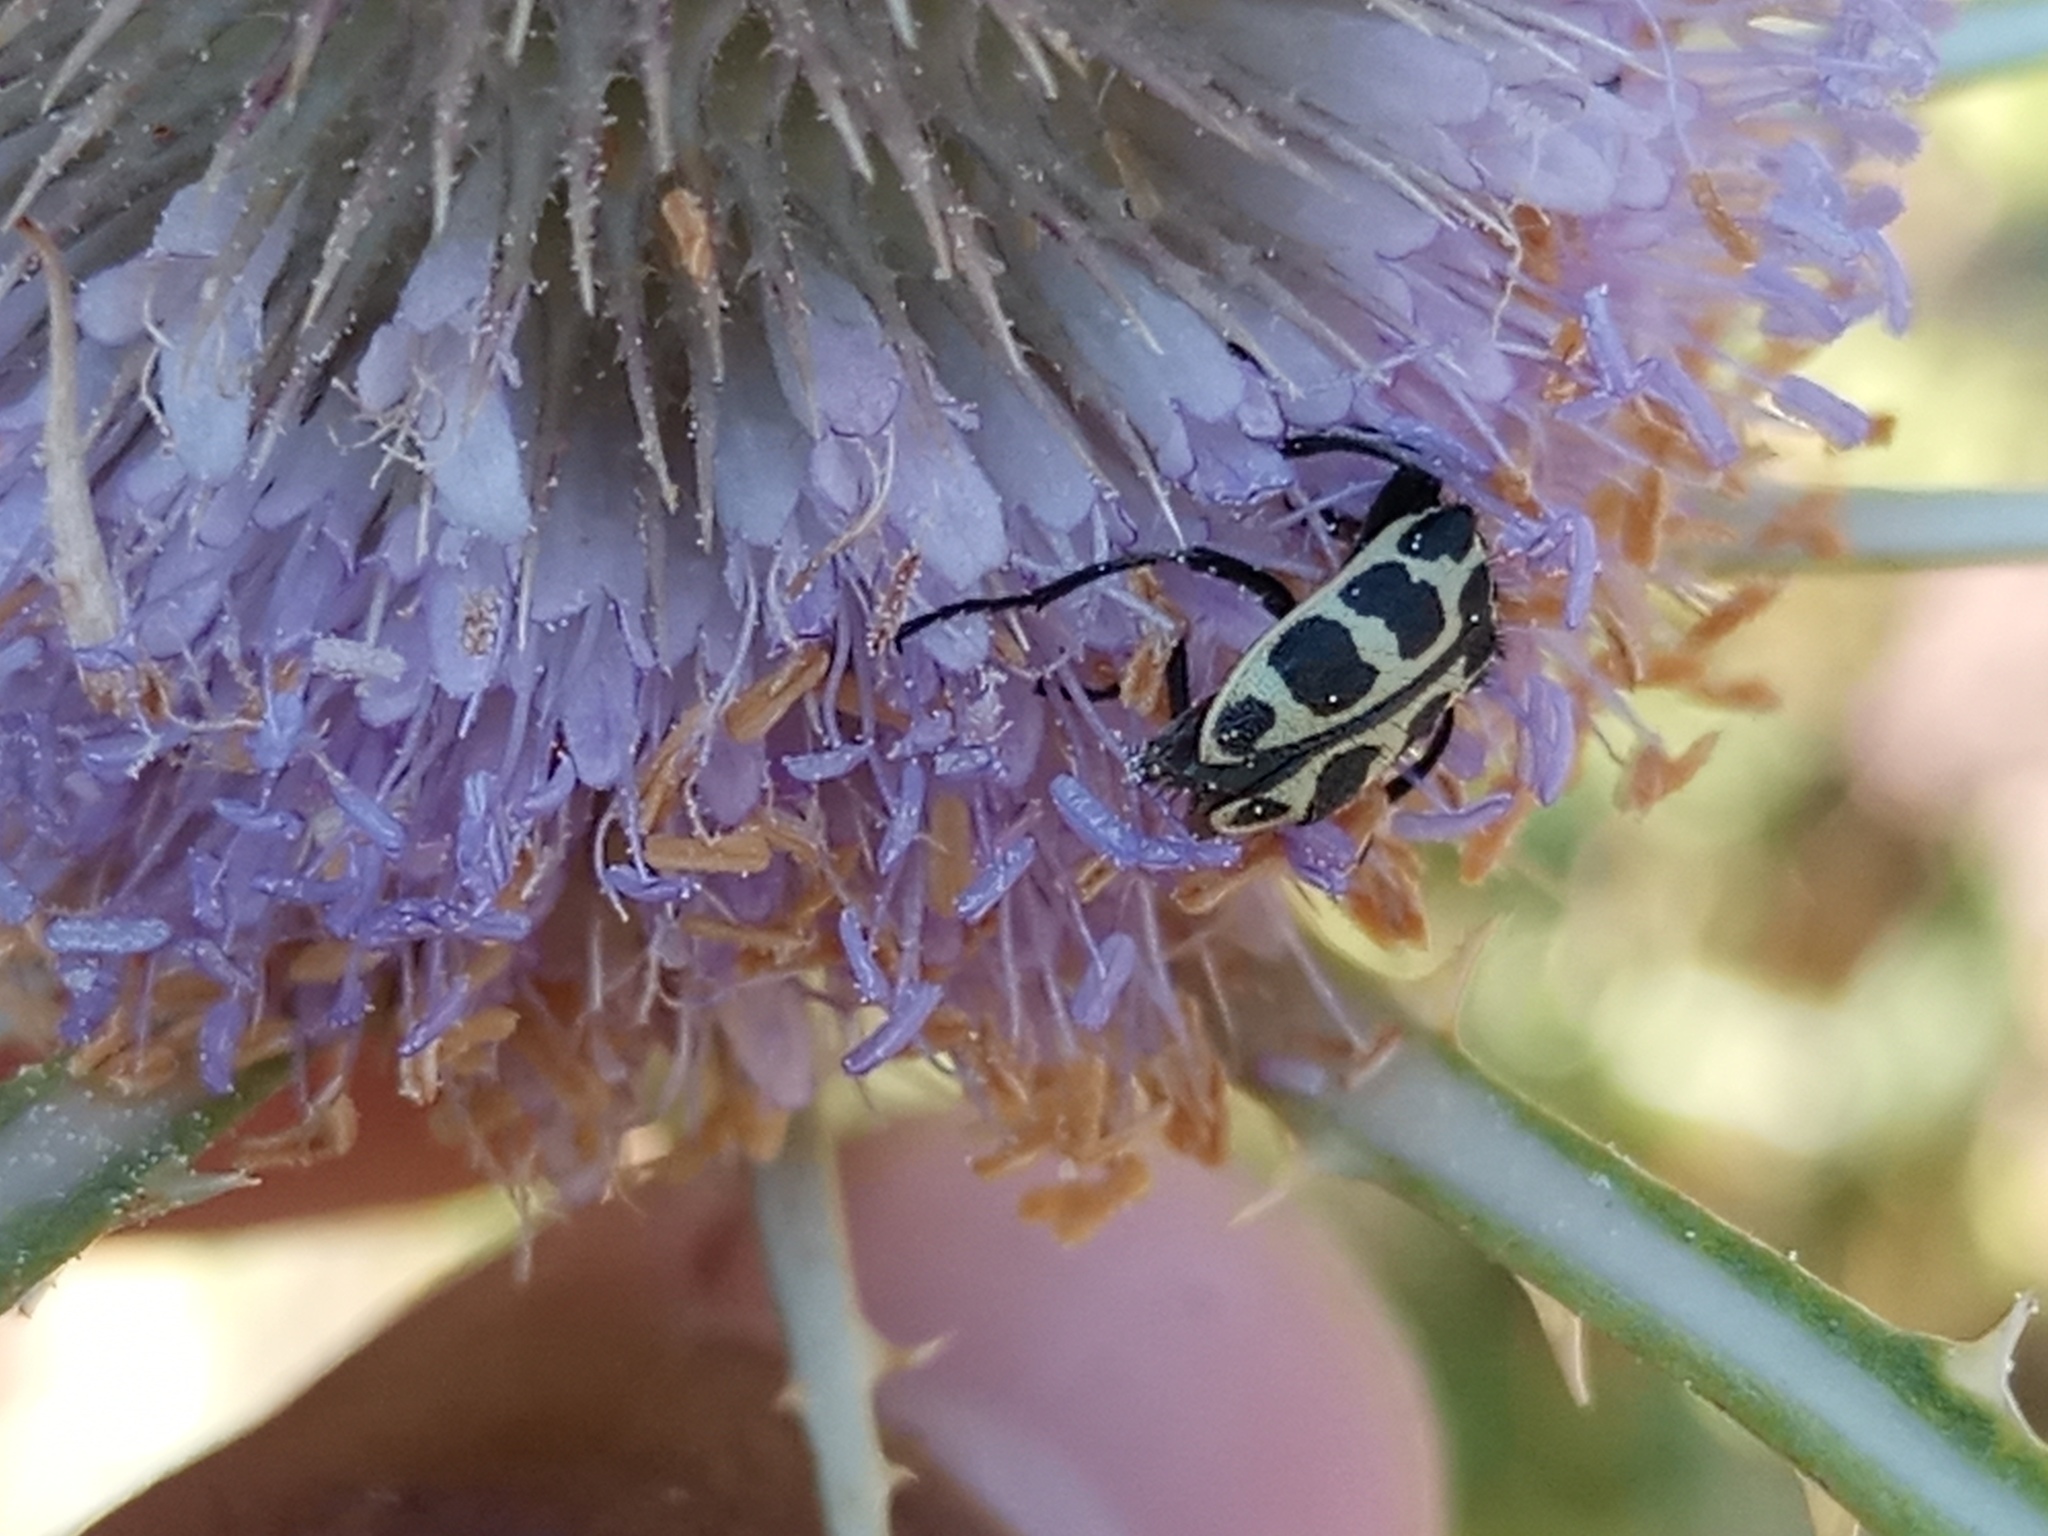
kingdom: Animalia
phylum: Arthropoda
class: Insecta
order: Coleoptera
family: Melyridae
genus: Astylus
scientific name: Astylus atromaculatus
